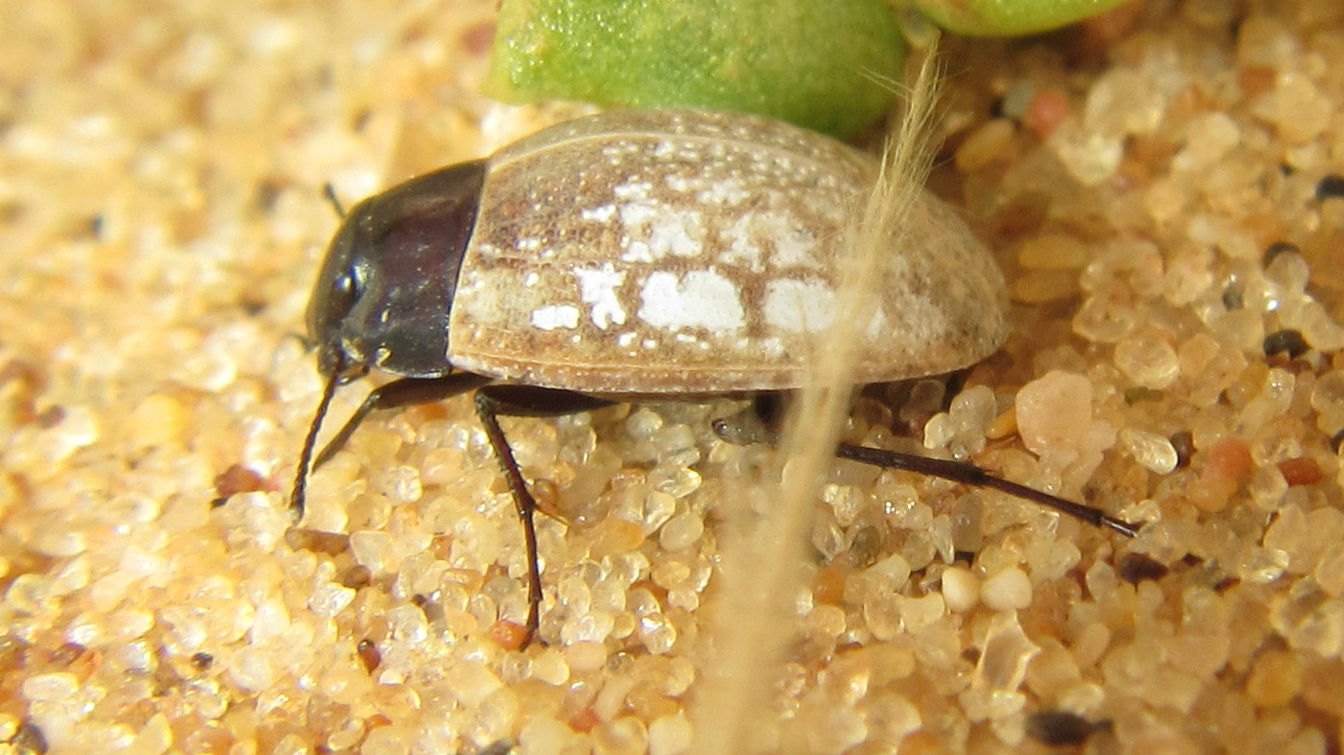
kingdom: Animalia
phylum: Arthropoda
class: Insecta
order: Coleoptera
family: Tenebrionidae
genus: Zophosis
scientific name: Zophosis
